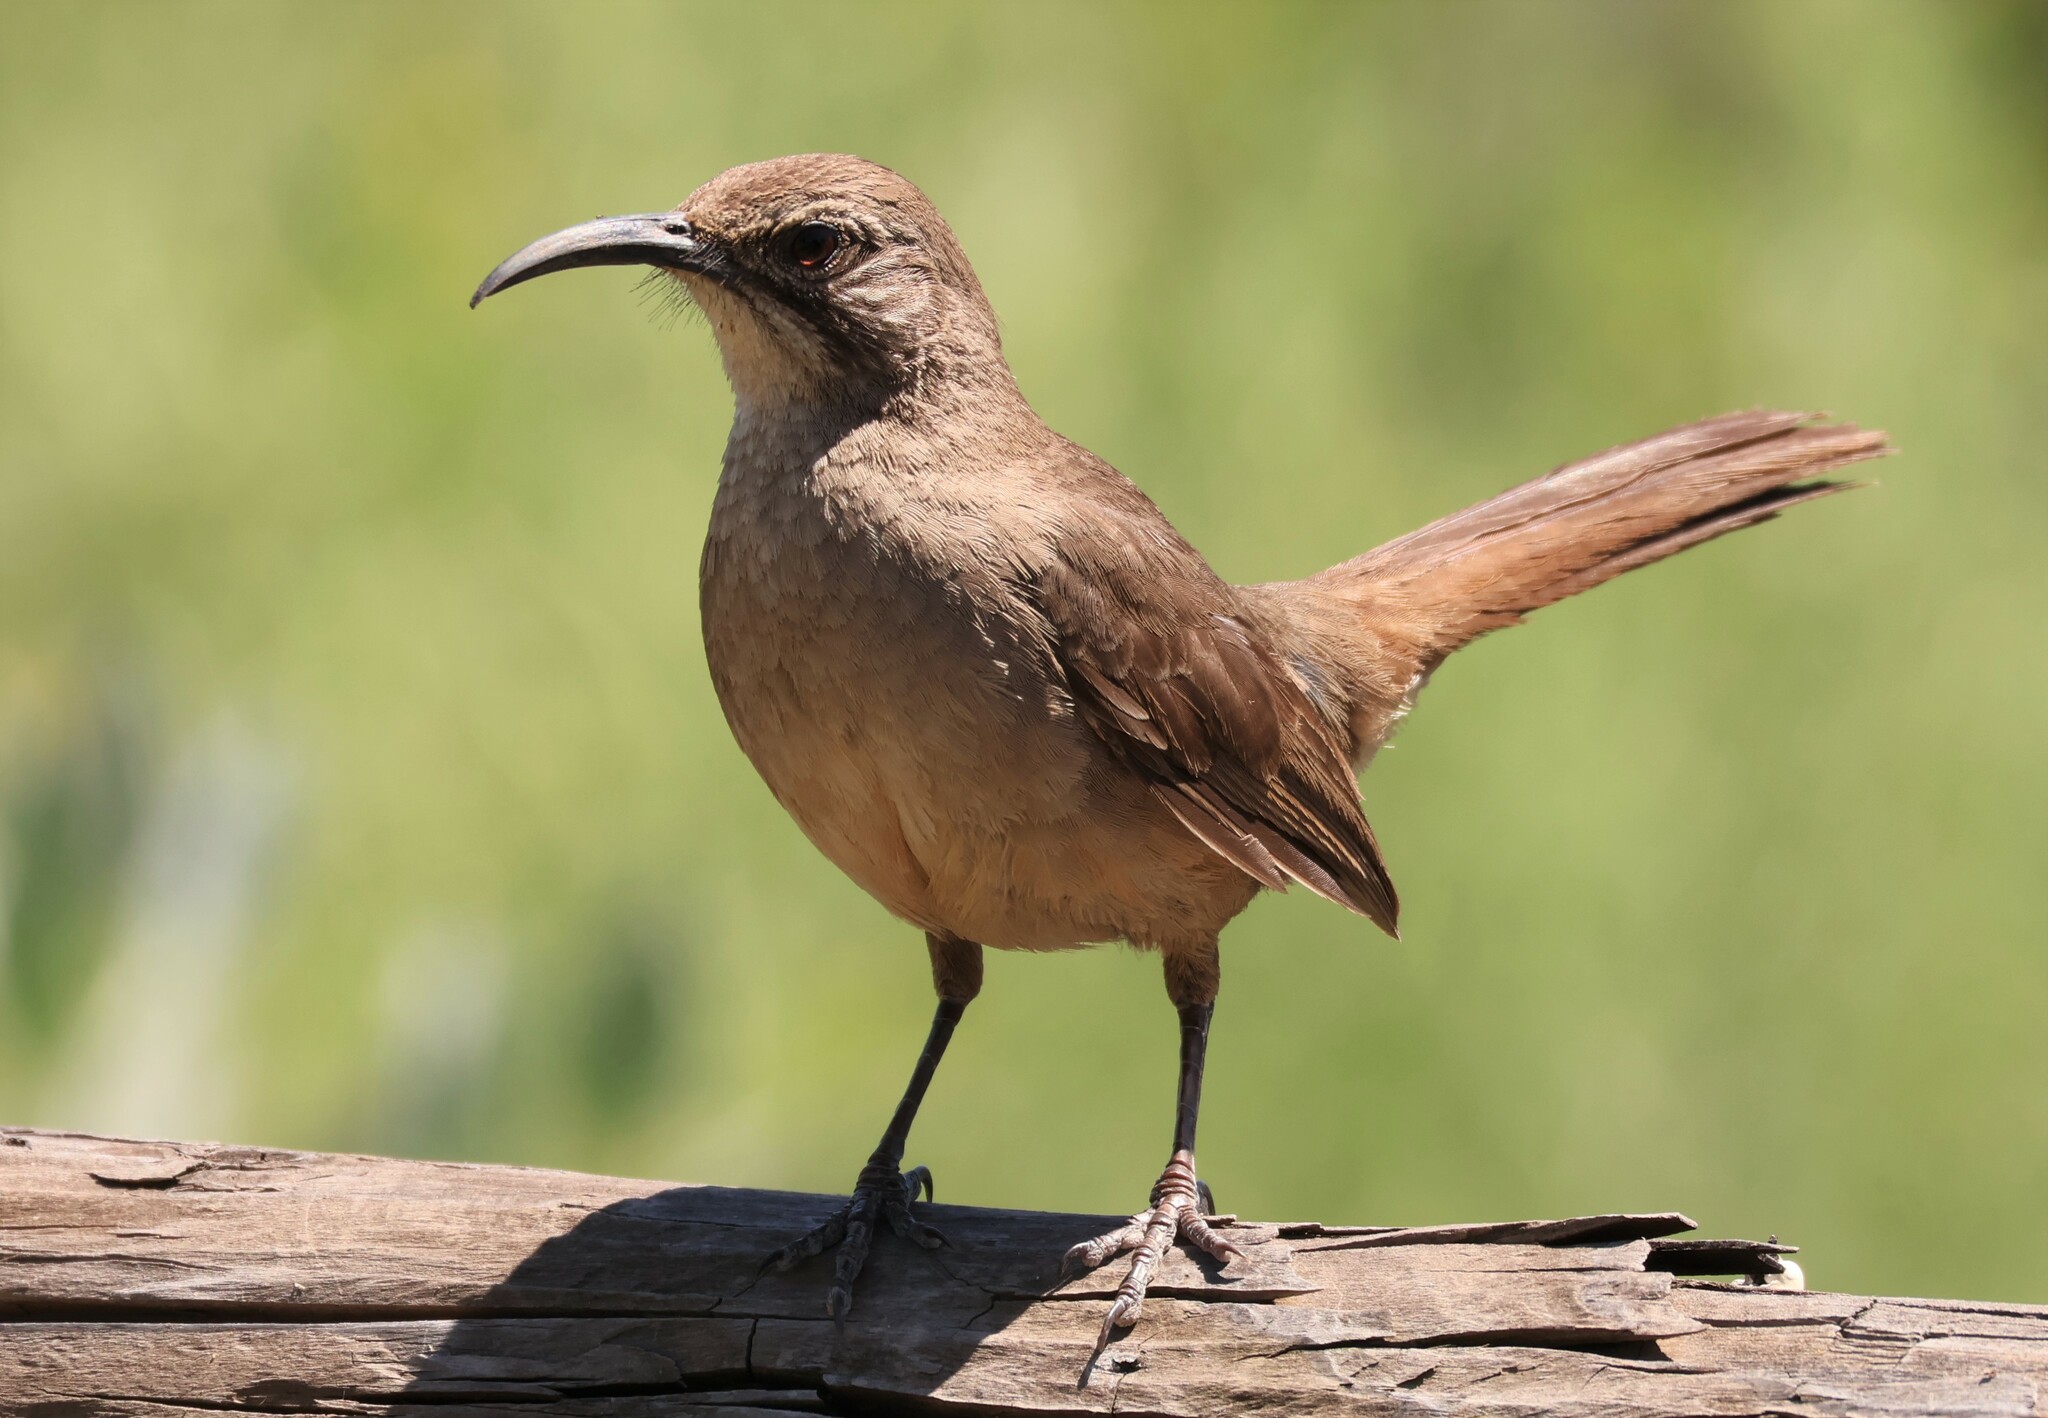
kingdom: Animalia
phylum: Chordata
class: Aves
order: Passeriformes
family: Mimidae
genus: Toxostoma
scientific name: Toxostoma redivivum
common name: California thrasher
